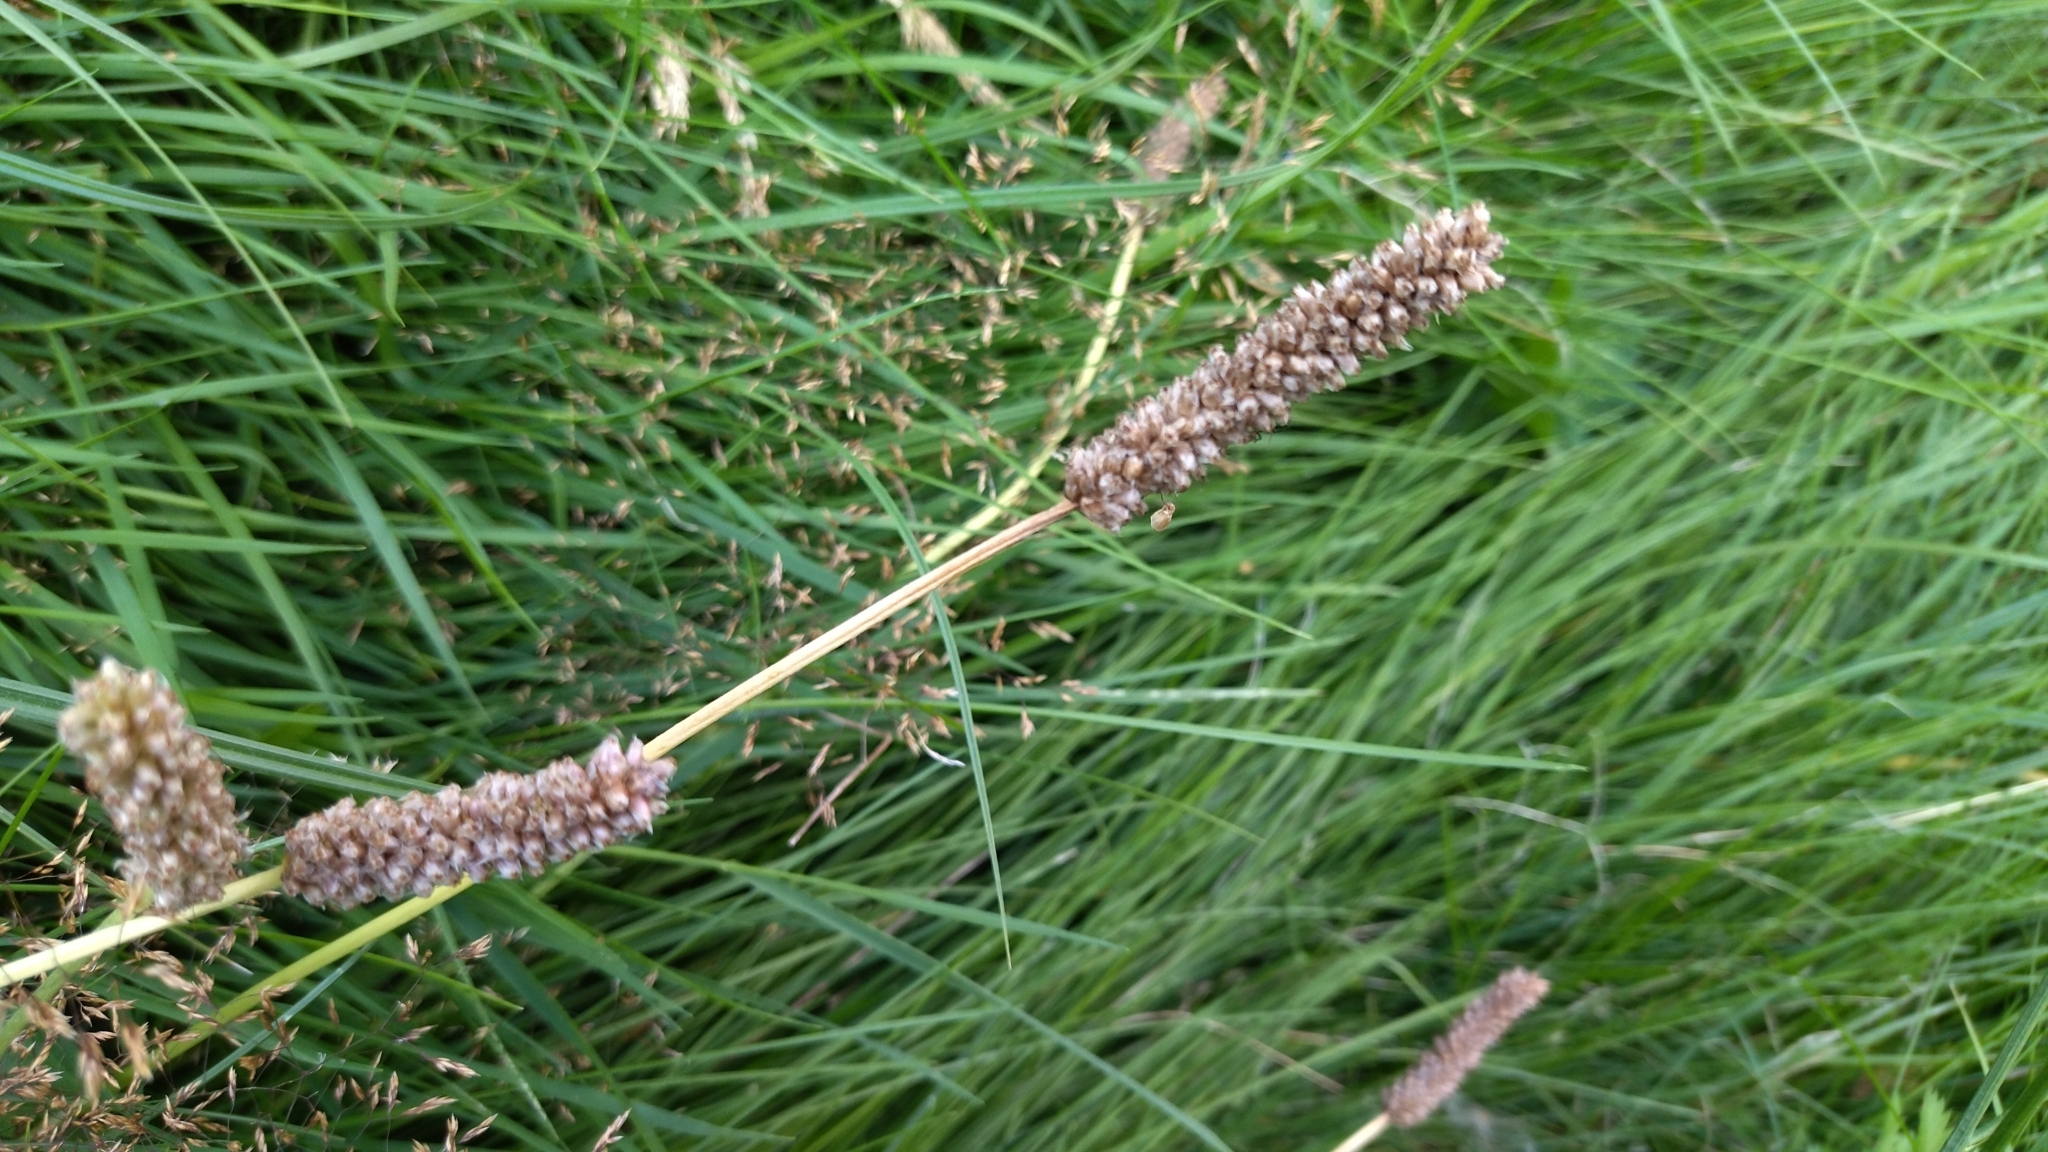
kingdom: Plantae
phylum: Tracheophyta
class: Magnoliopsida
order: Lamiales
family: Plantaginaceae
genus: Plantago
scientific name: Plantago lanceolata
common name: Ribwort plantain
